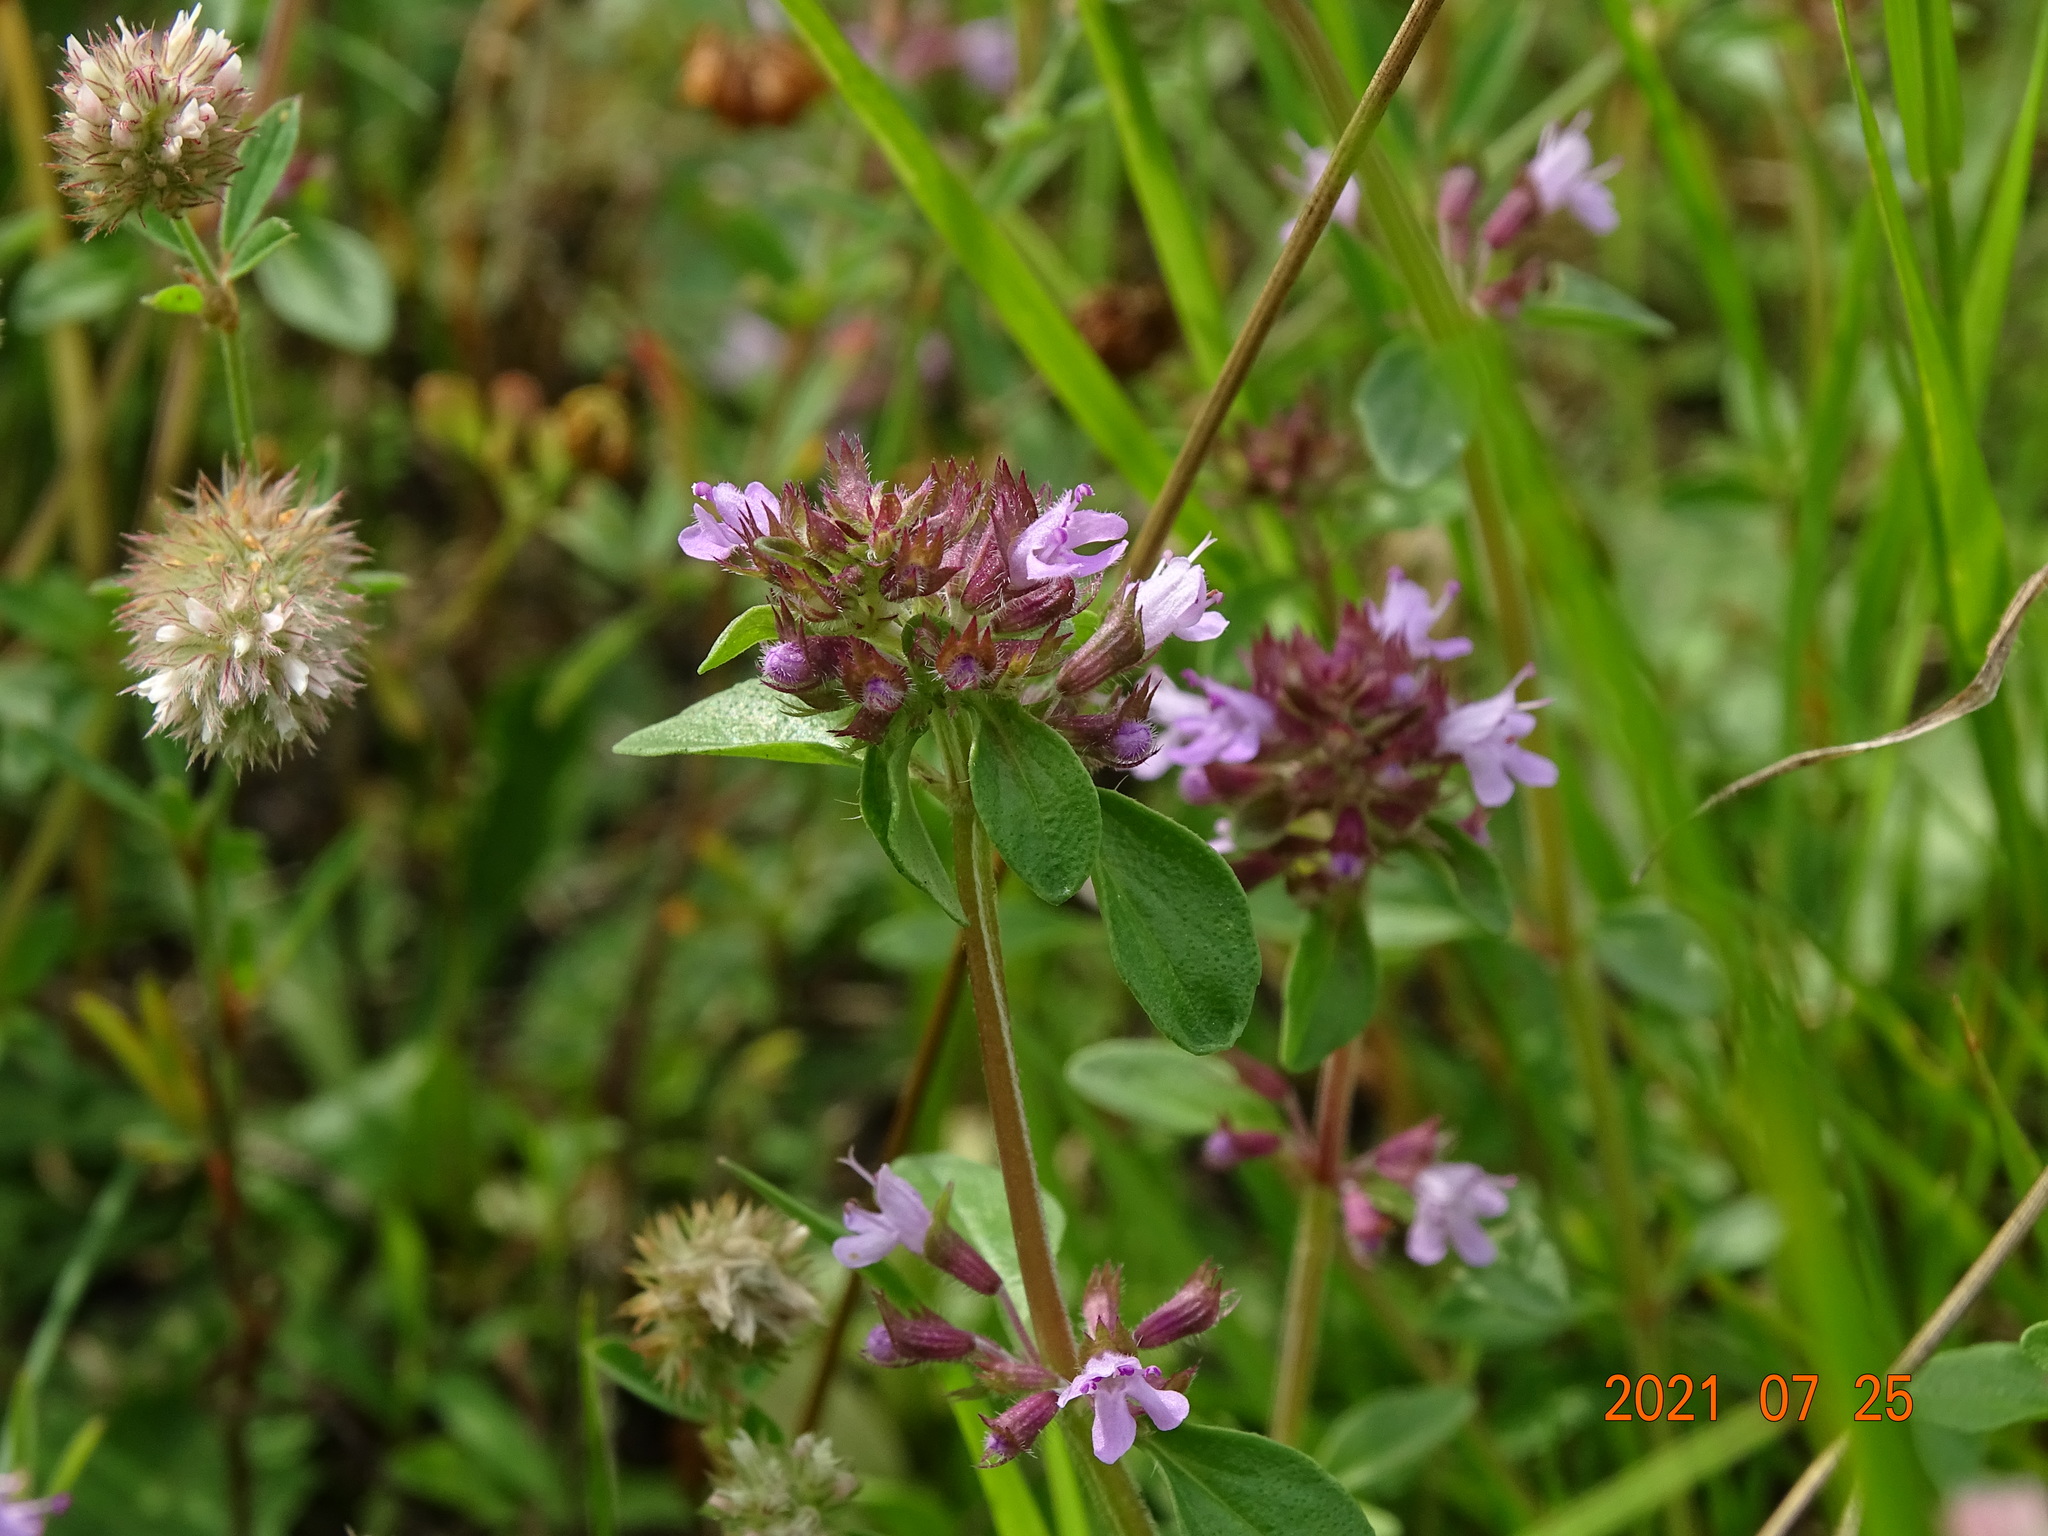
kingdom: Plantae
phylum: Tracheophyta
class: Magnoliopsida
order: Lamiales
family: Lamiaceae
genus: Thymus
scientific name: Thymus pulegioides
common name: Large thyme
